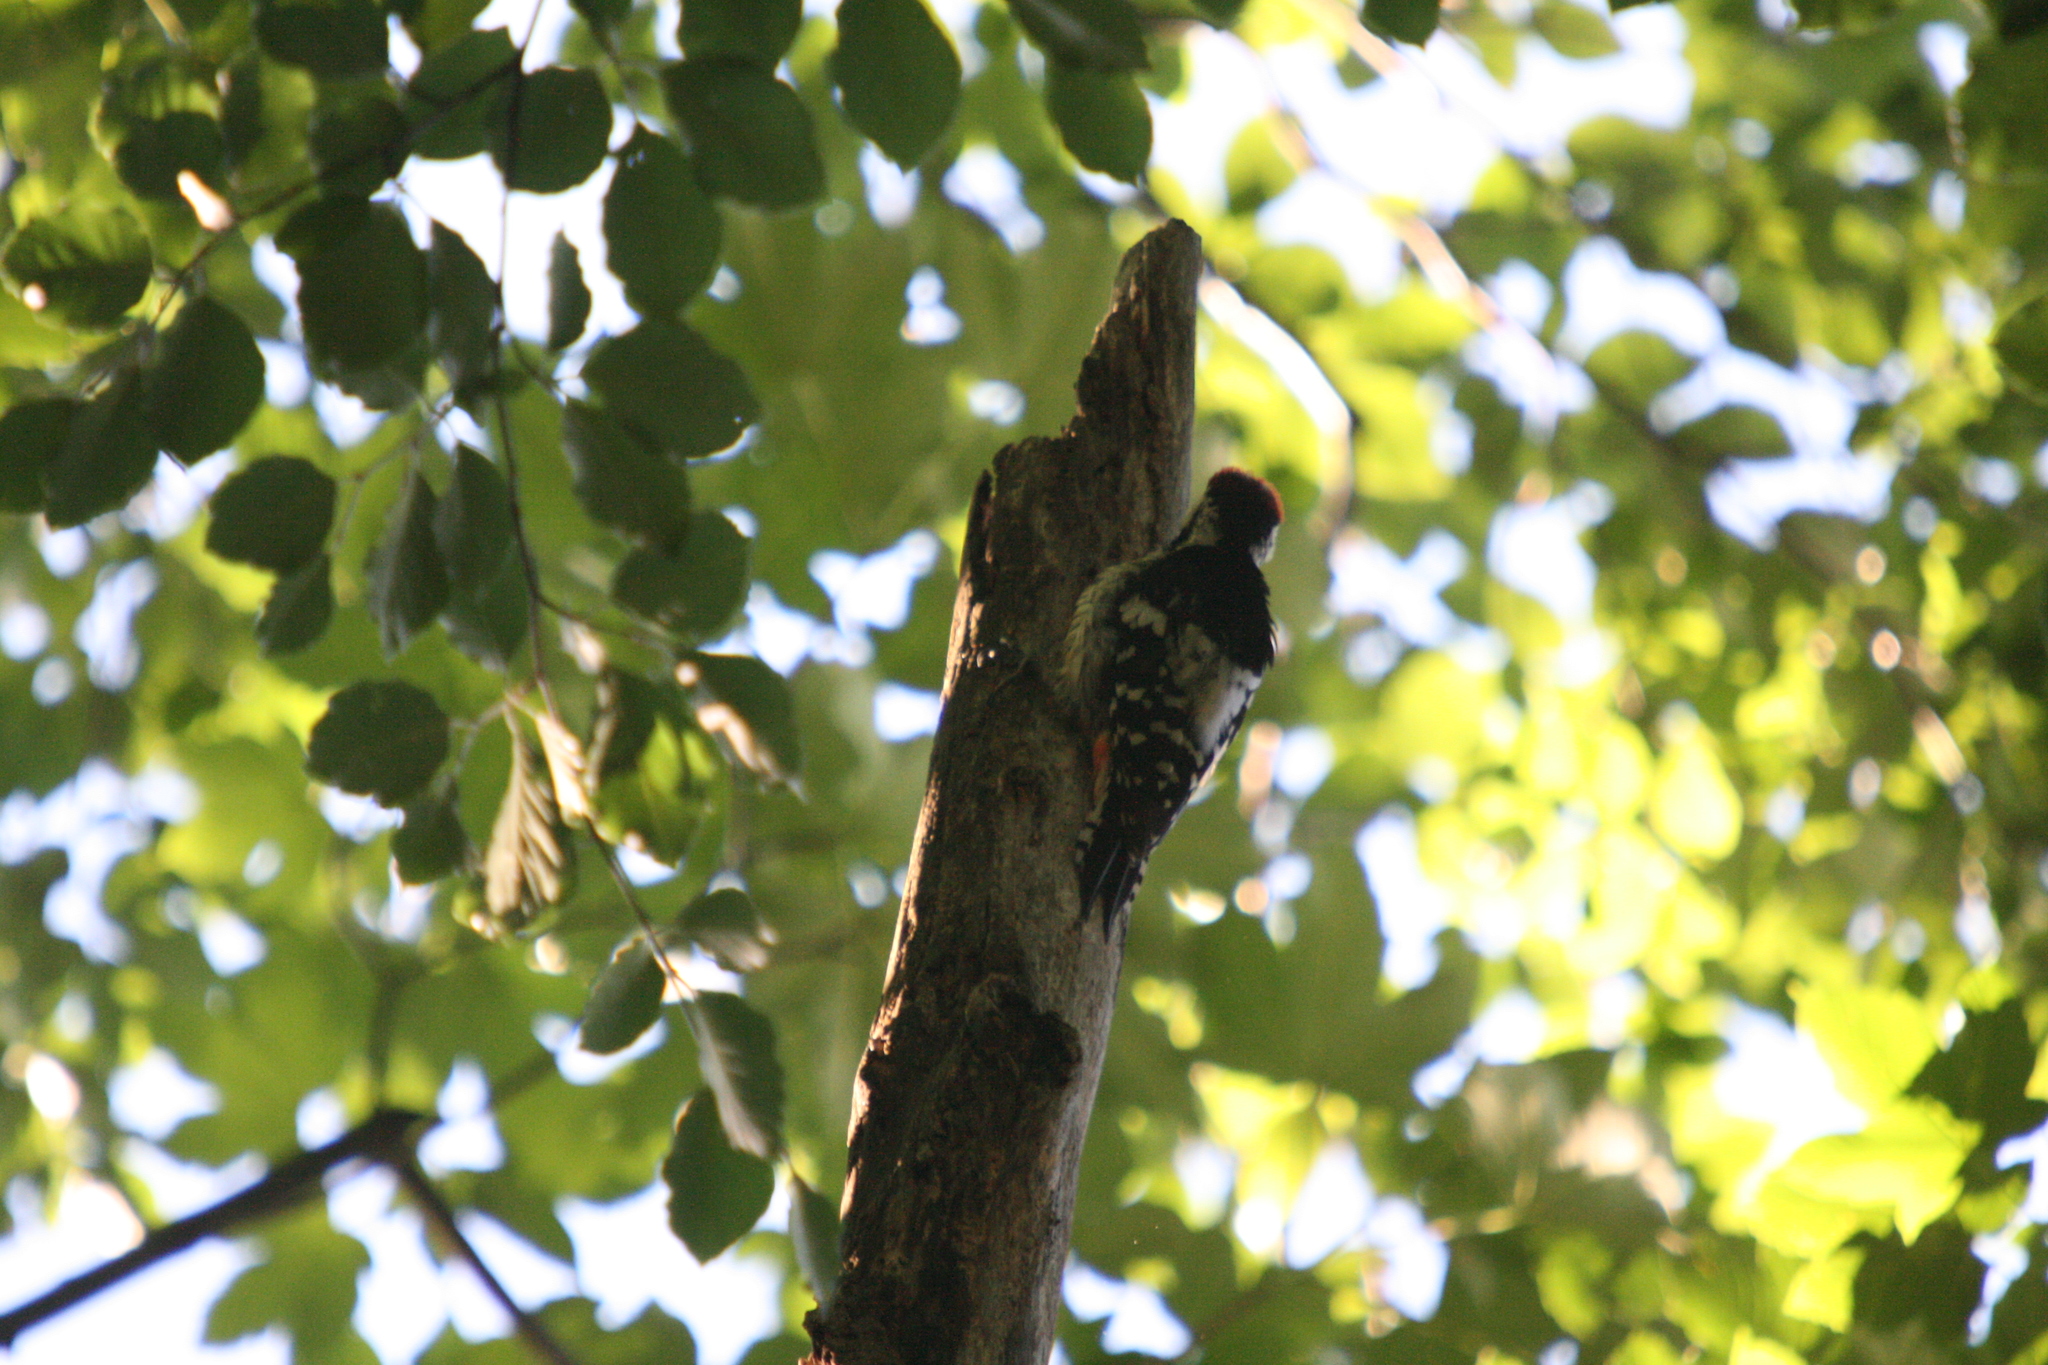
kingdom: Animalia
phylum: Chordata
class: Aves
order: Piciformes
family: Picidae
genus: Dendrocopos
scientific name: Dendrocopos leucotos
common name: White-backed woodpecker
